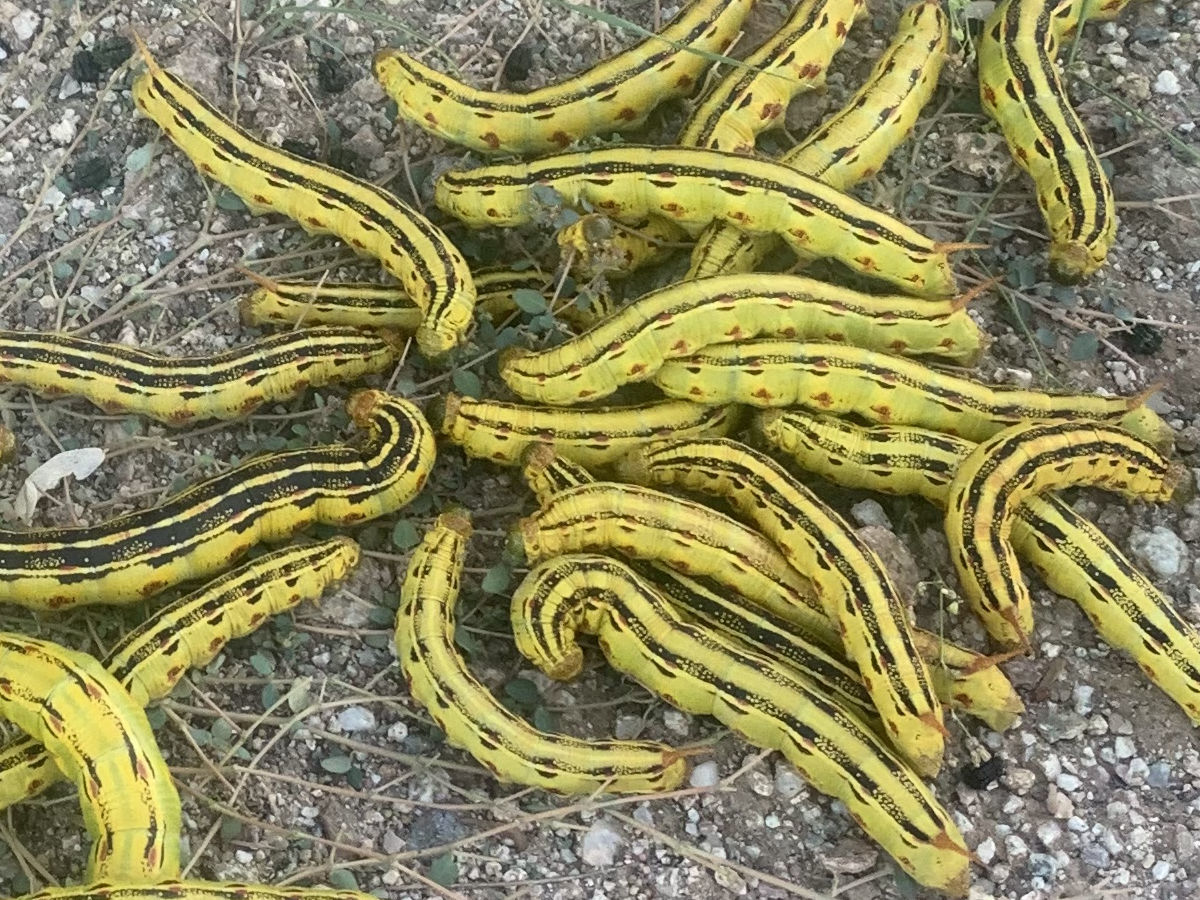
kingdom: Animalia
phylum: Arthropoda
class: Insecta
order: Lepidoptera
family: Sphingidae
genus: Hyles
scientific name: Hyles lineata
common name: White-lined sphinx
